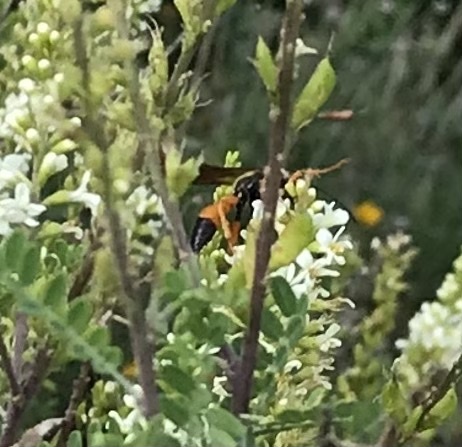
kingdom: Animalia
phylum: Arthropoda
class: Insecta
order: Hymenoptera
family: Sphecidae
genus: Sphex
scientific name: Sphex ichneumoneus
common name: Great golden digger wasp
